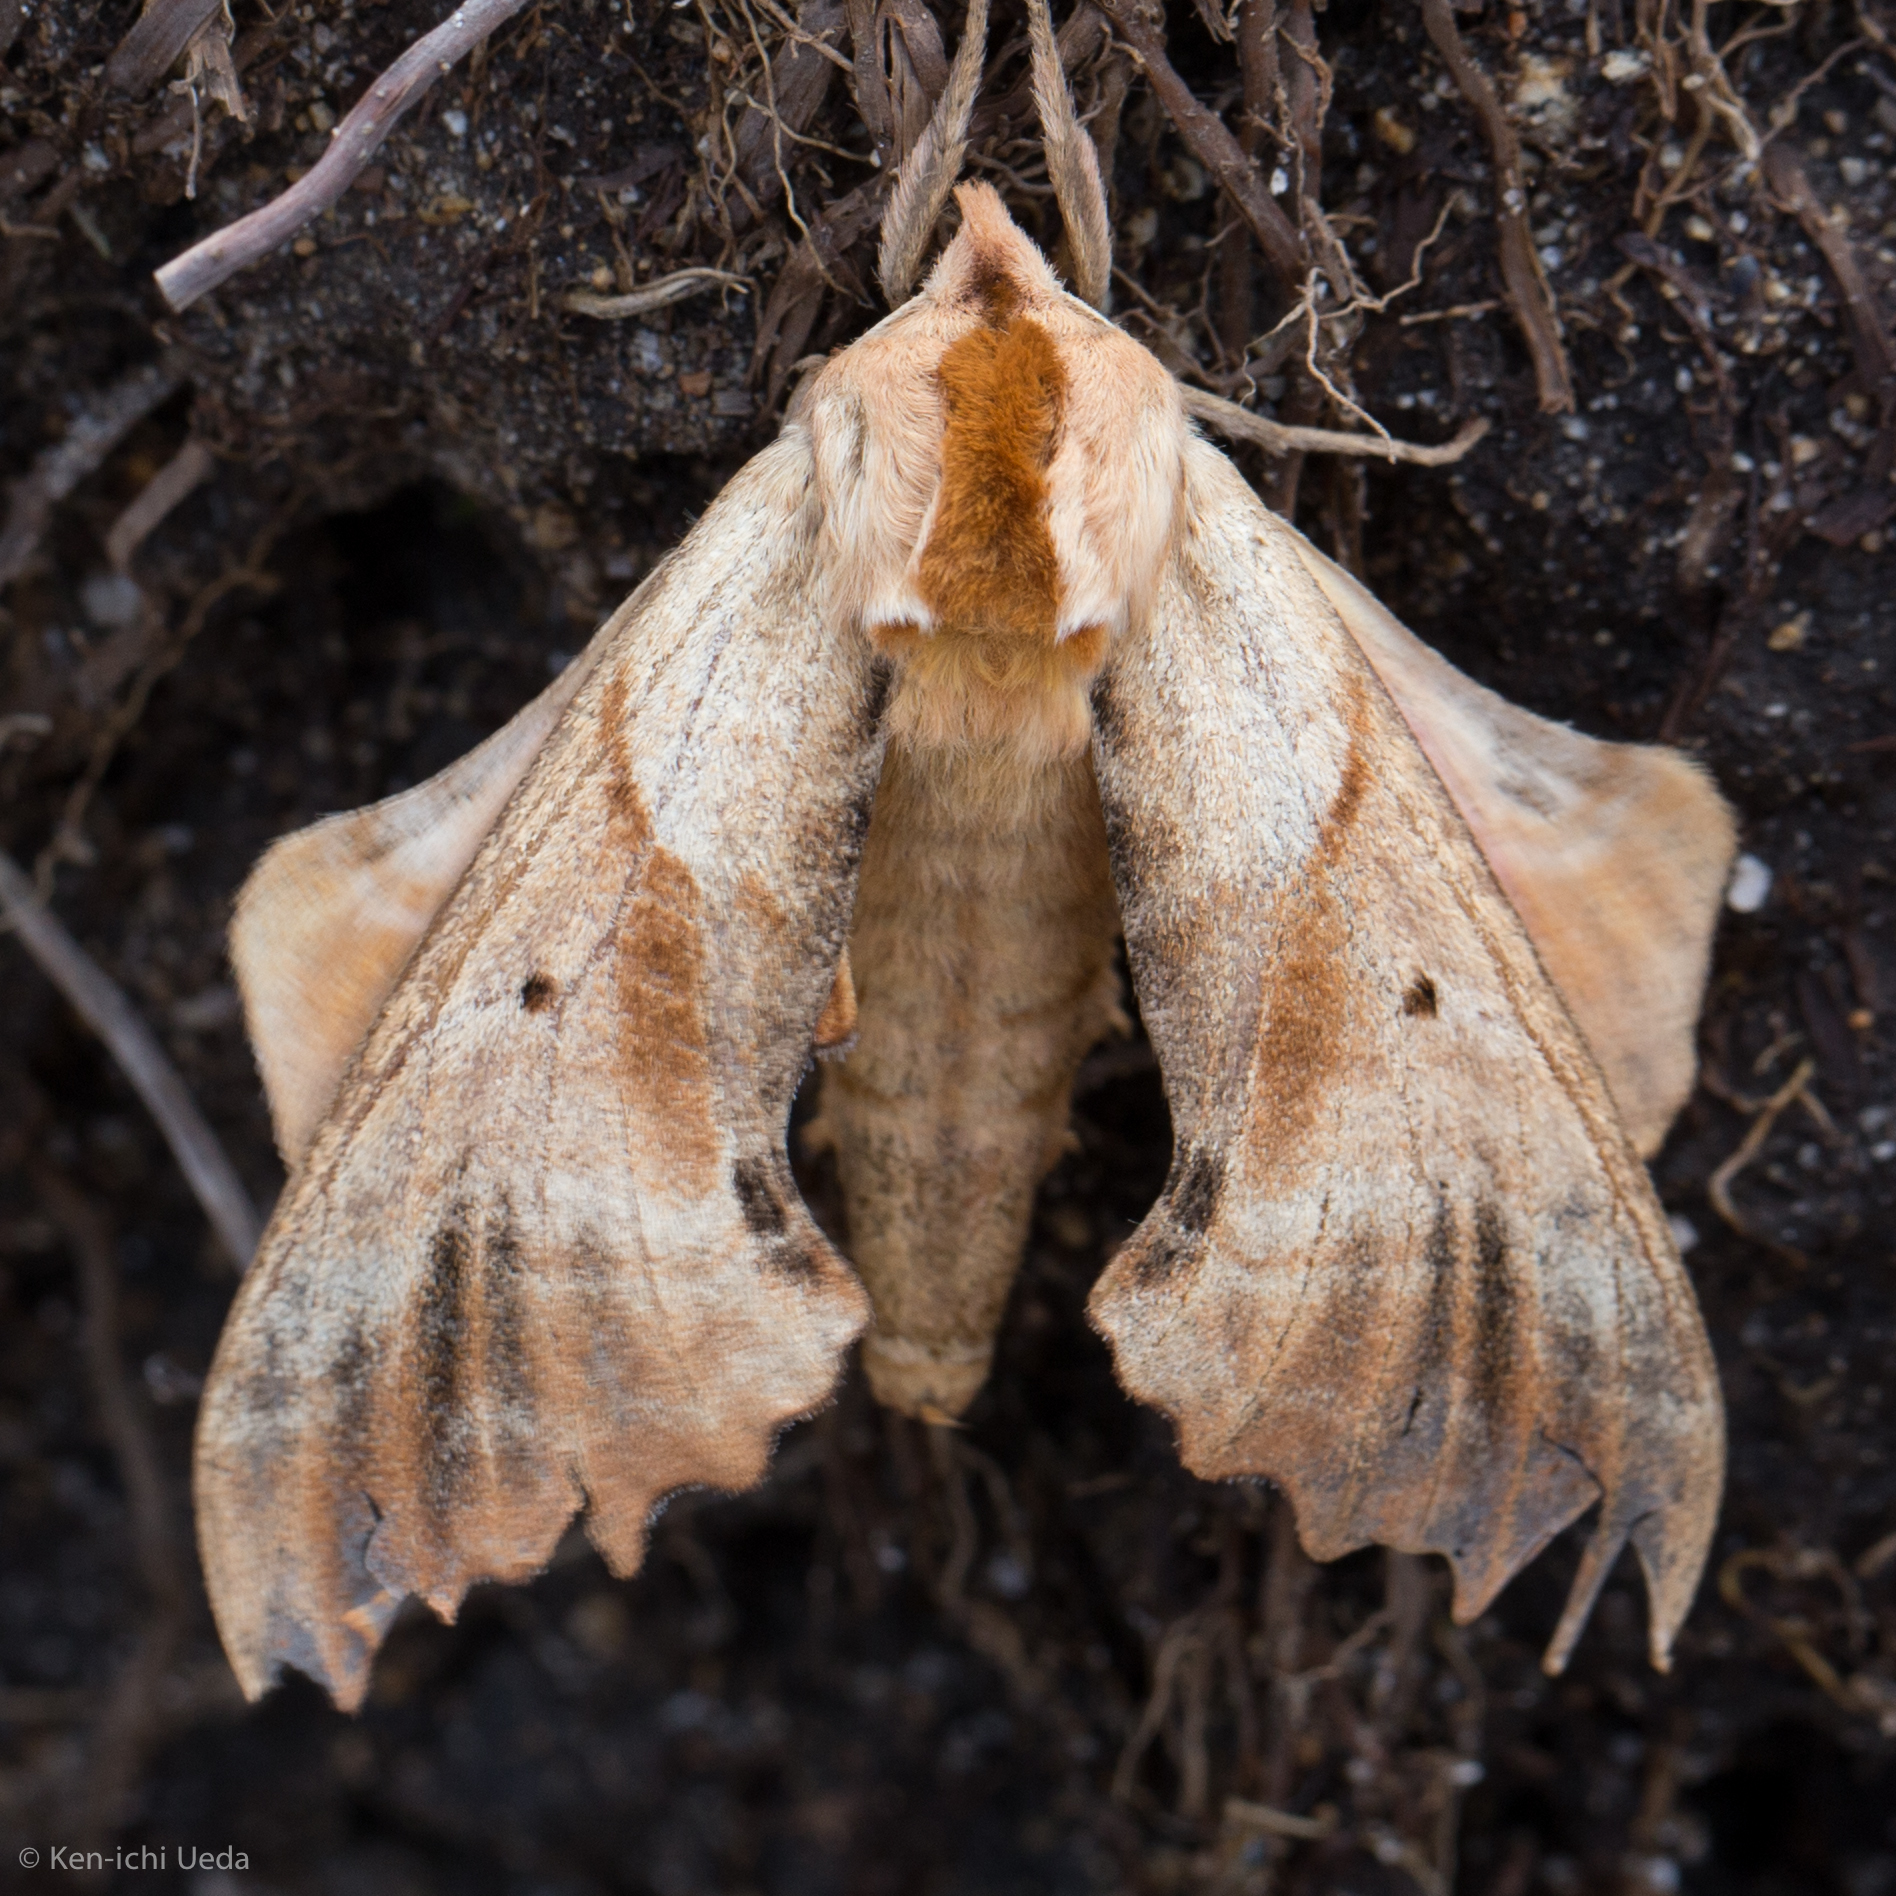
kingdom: Animalia
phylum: Arthropoda
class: Insecta
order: Lepidoptera
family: Sphingidae
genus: Paonias
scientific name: Paonias excaecata
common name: Blind-eyed sphinx
